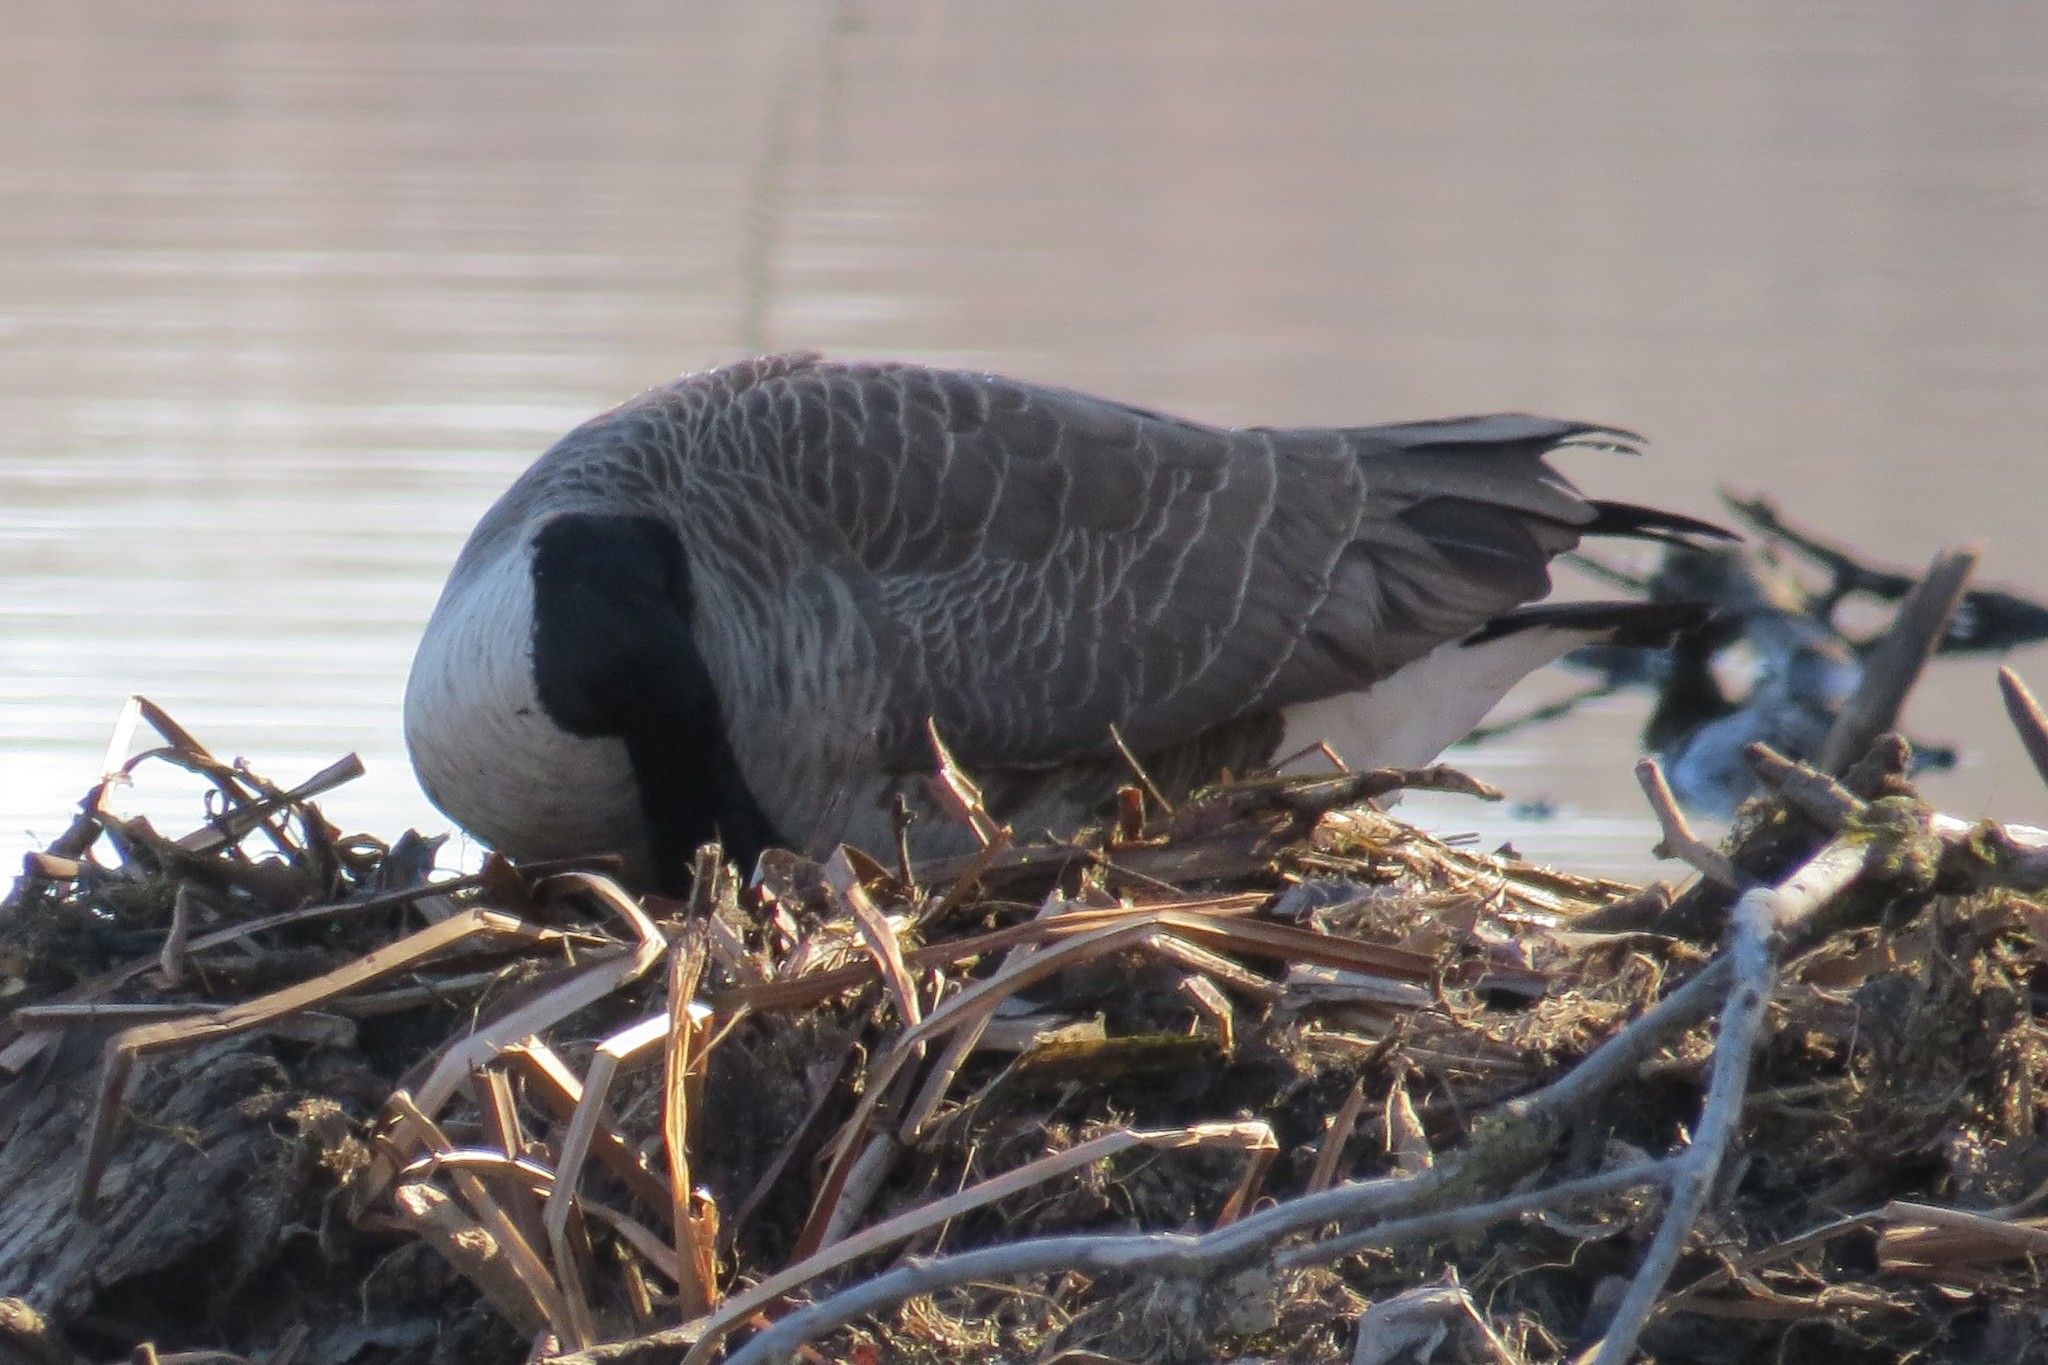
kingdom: Animalia
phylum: Chordata
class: Aves
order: Anseriformes
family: Anatidae
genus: Branta
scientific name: Branta canadensis
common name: Canada goose
